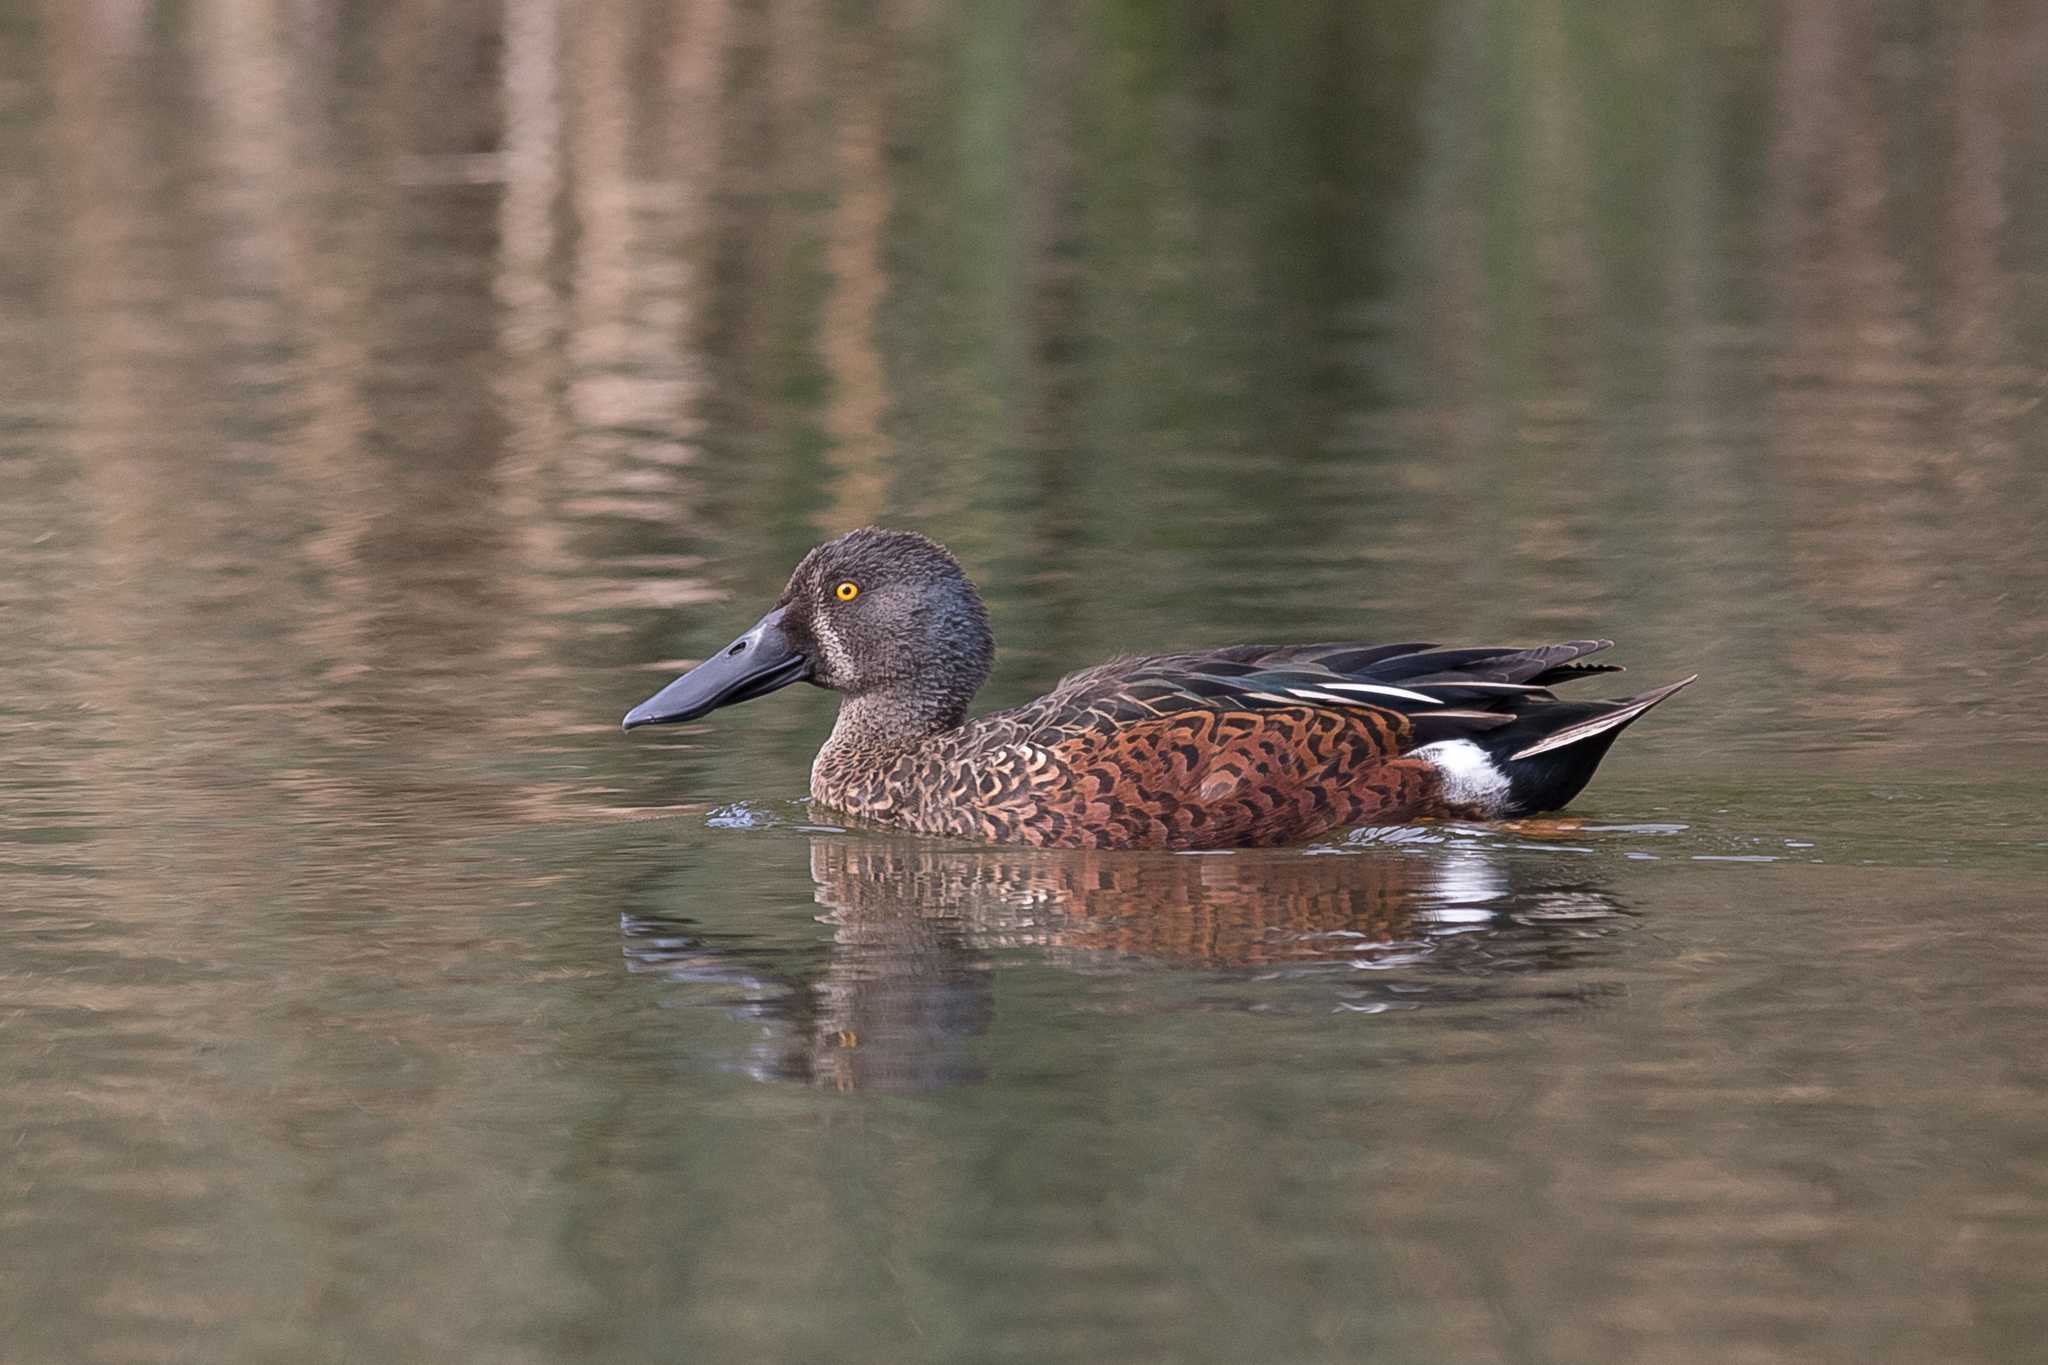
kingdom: Animalia
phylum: Chordata
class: Aves
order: Anseriformes
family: Anatidae
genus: Spatula
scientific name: Spatula rhynchotis
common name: Australian shoveler
